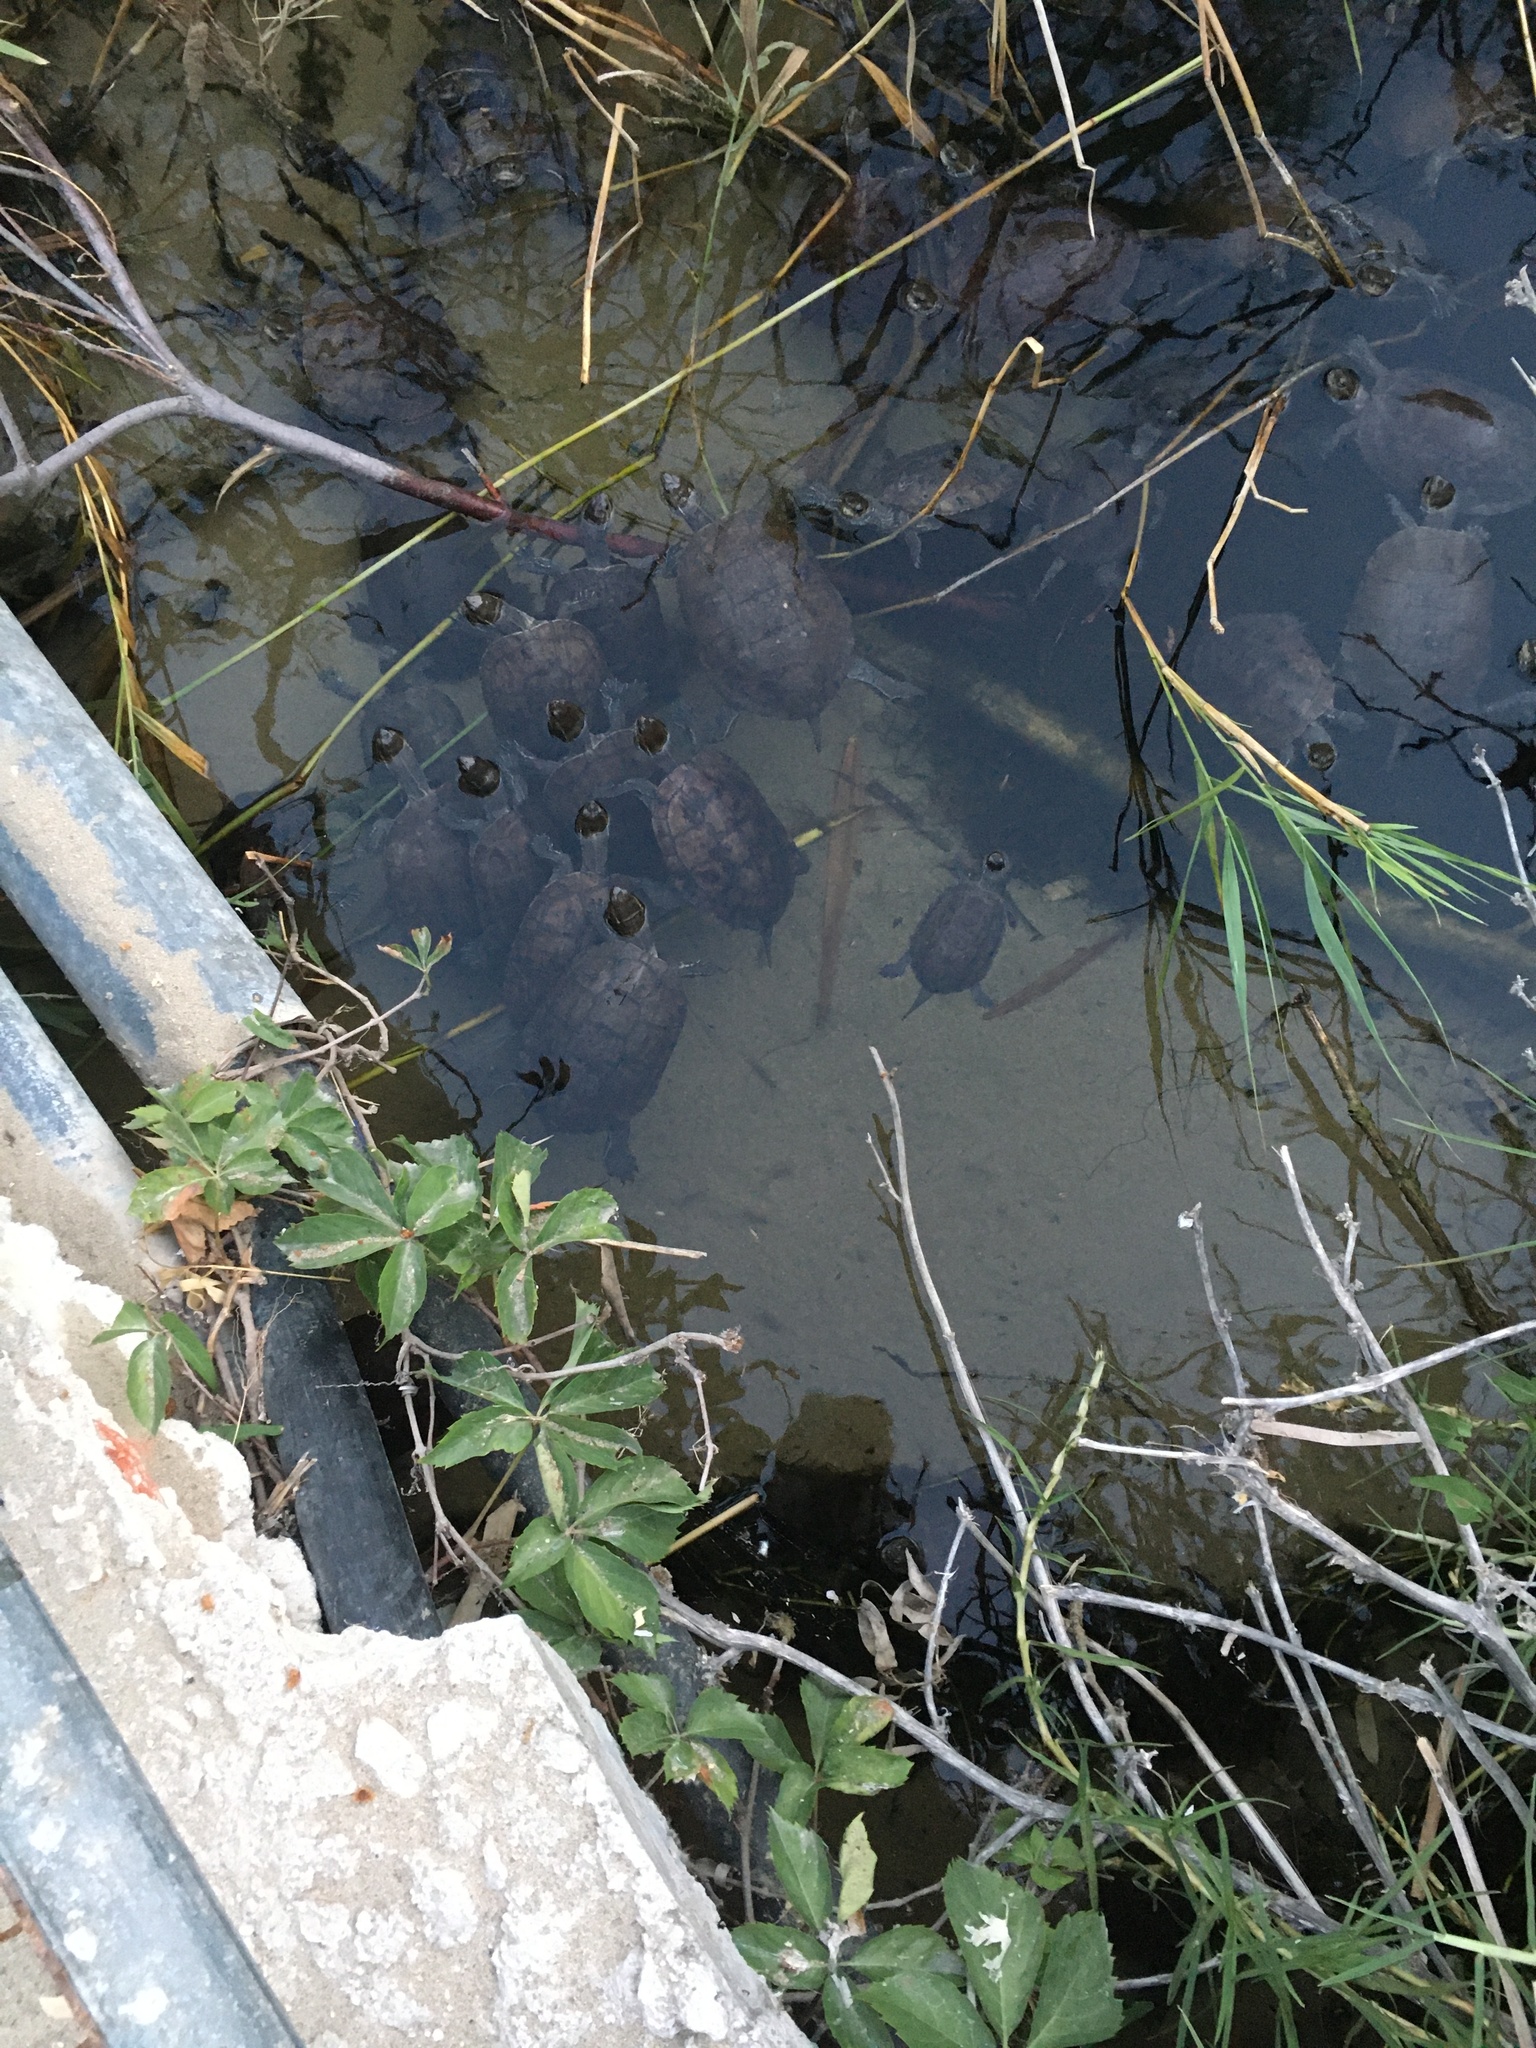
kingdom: Animalia
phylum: Chordata
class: Testudines
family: Geoemydidae
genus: Mauremys
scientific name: Mauremys rivulata
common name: Western caspian turtle
